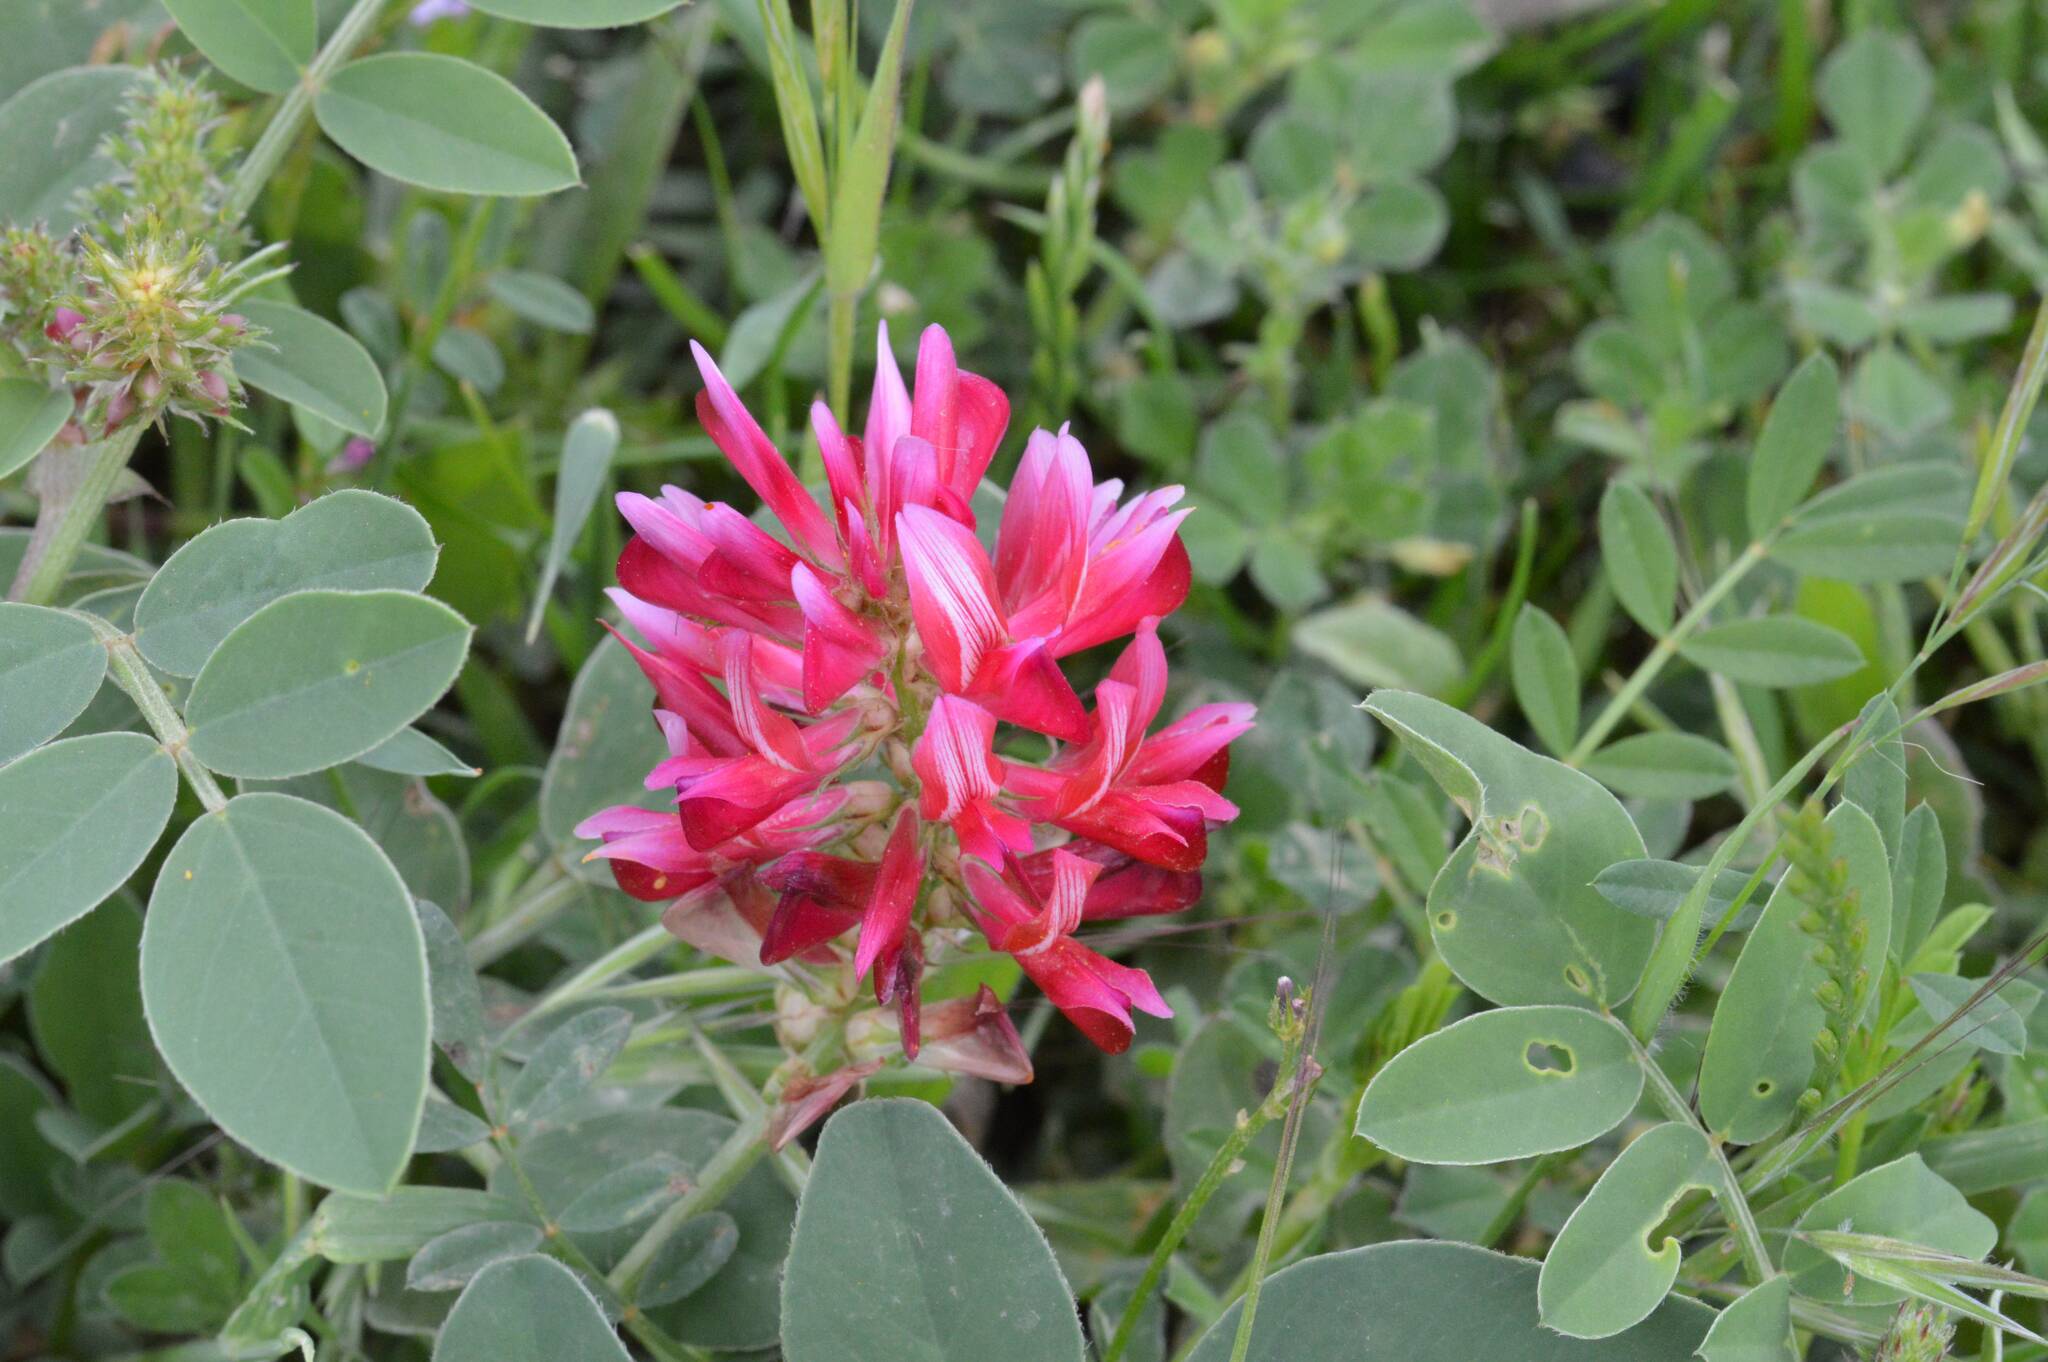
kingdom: Plantae
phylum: Tracheophyta
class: Magnoliopsida
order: Fabales
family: Fabaceae
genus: Sulla
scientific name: Sulla coronaria
